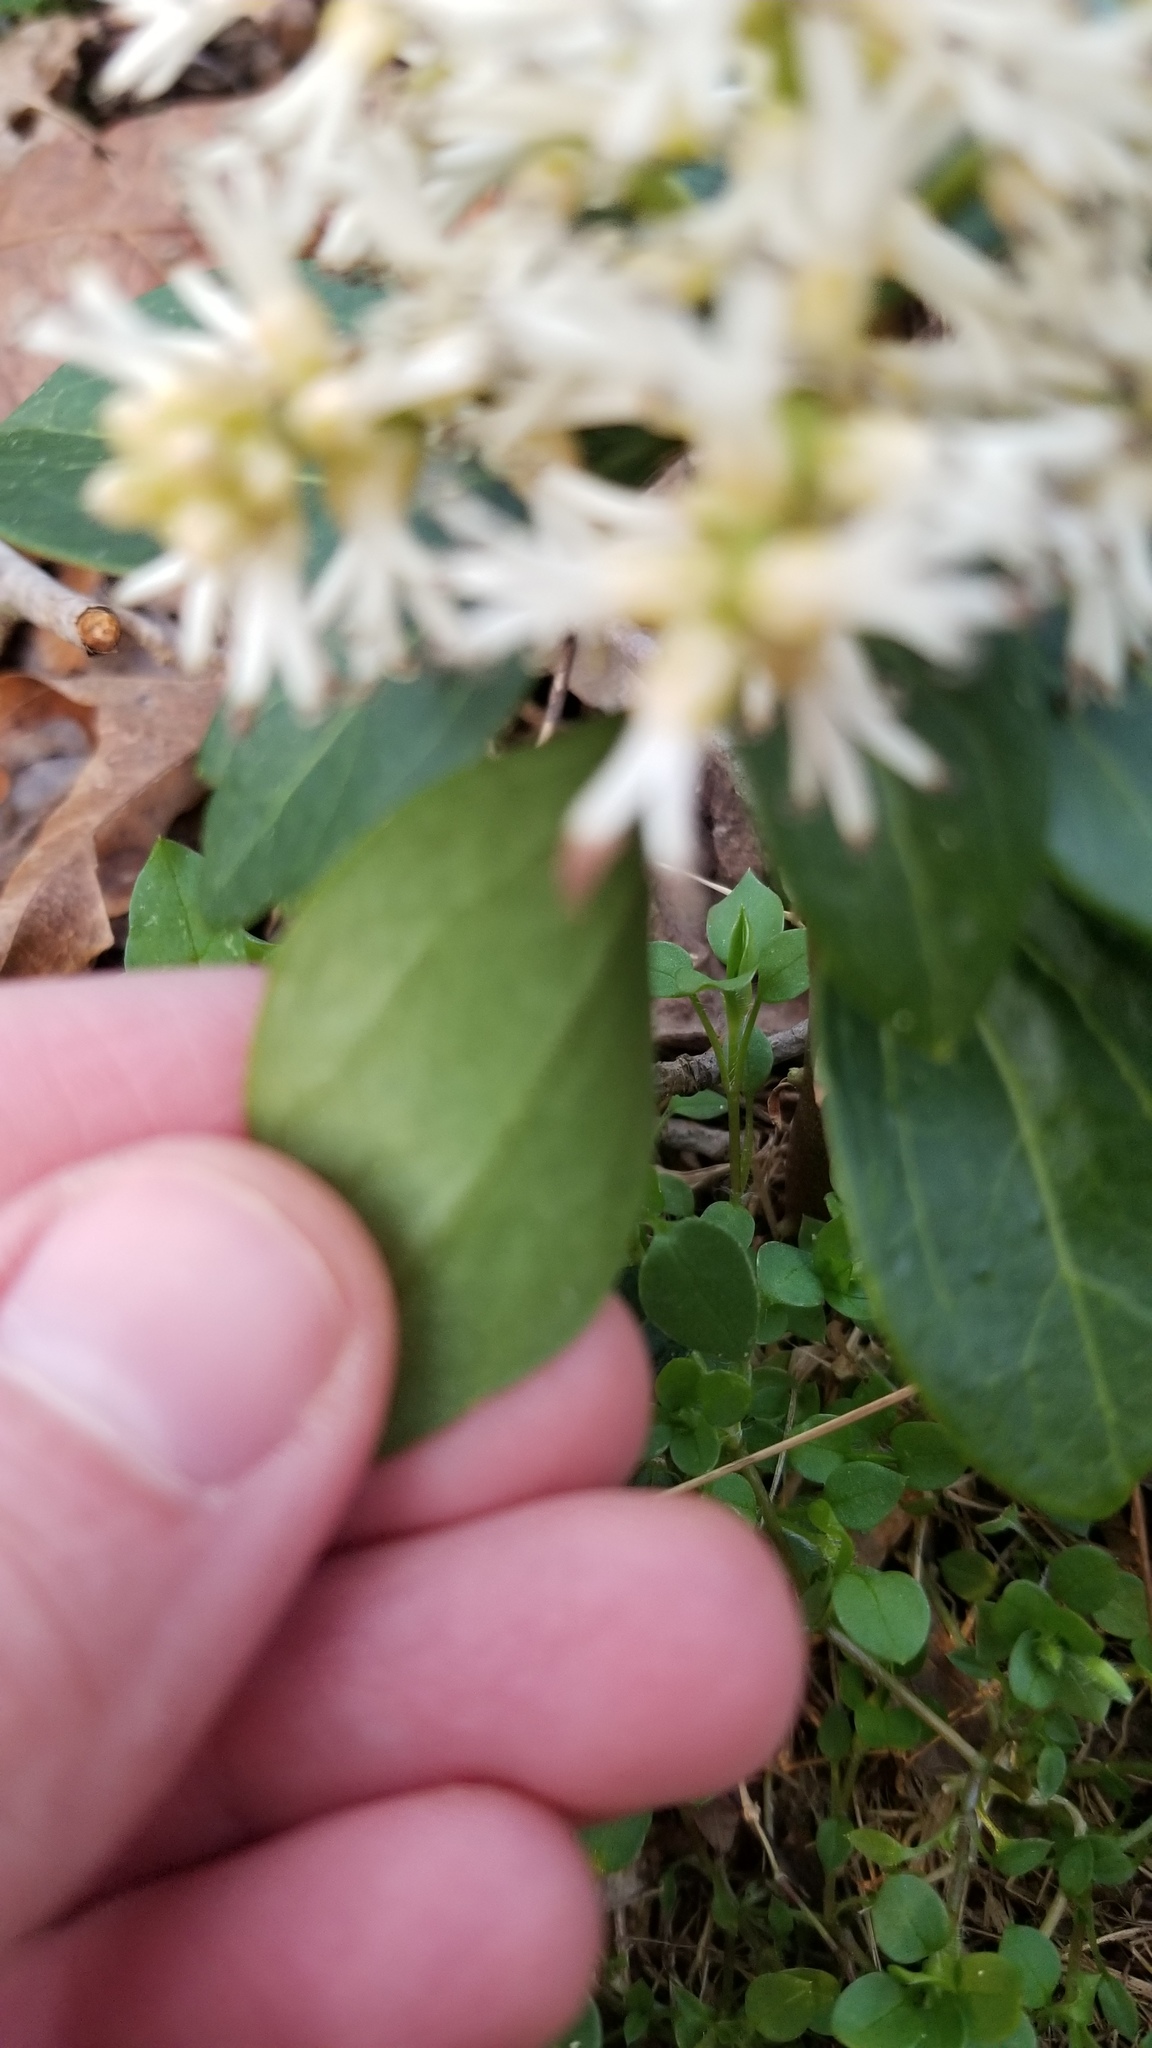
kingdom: Plantae
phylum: Tracheophyta
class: Magnoliopsida
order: Buxales
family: Buxaceae
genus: Pachysandra
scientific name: Pachysandra terminalis
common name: Japanese pachysandra
